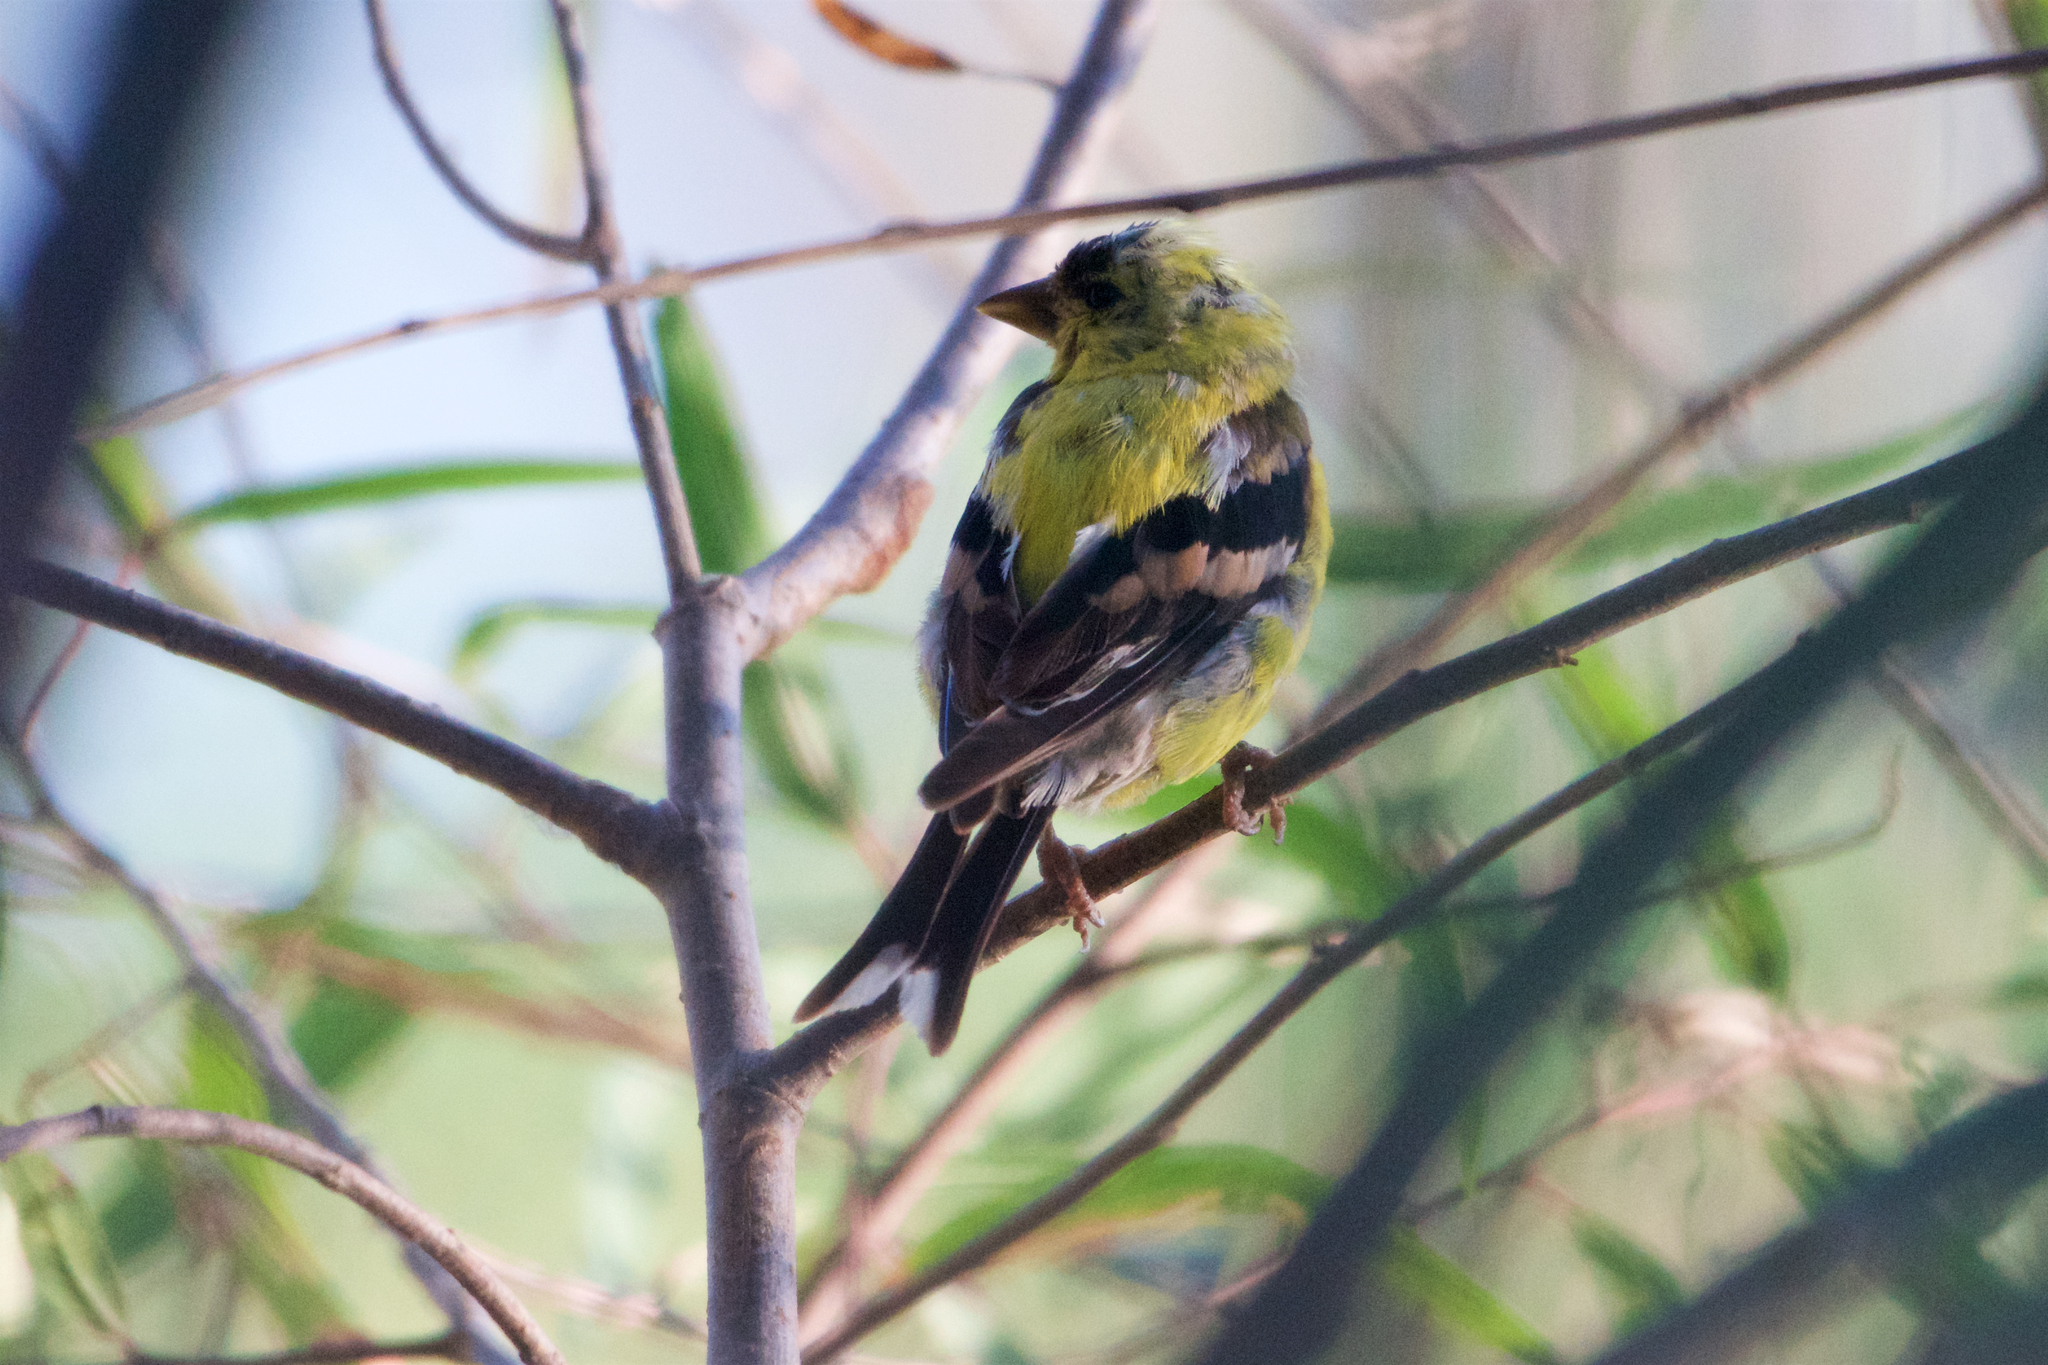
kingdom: Animalia
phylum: Chordata
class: Aves
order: Passeriformes
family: Fringillidae
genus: Spinus
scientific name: Spinus tristis
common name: American goldfinch
